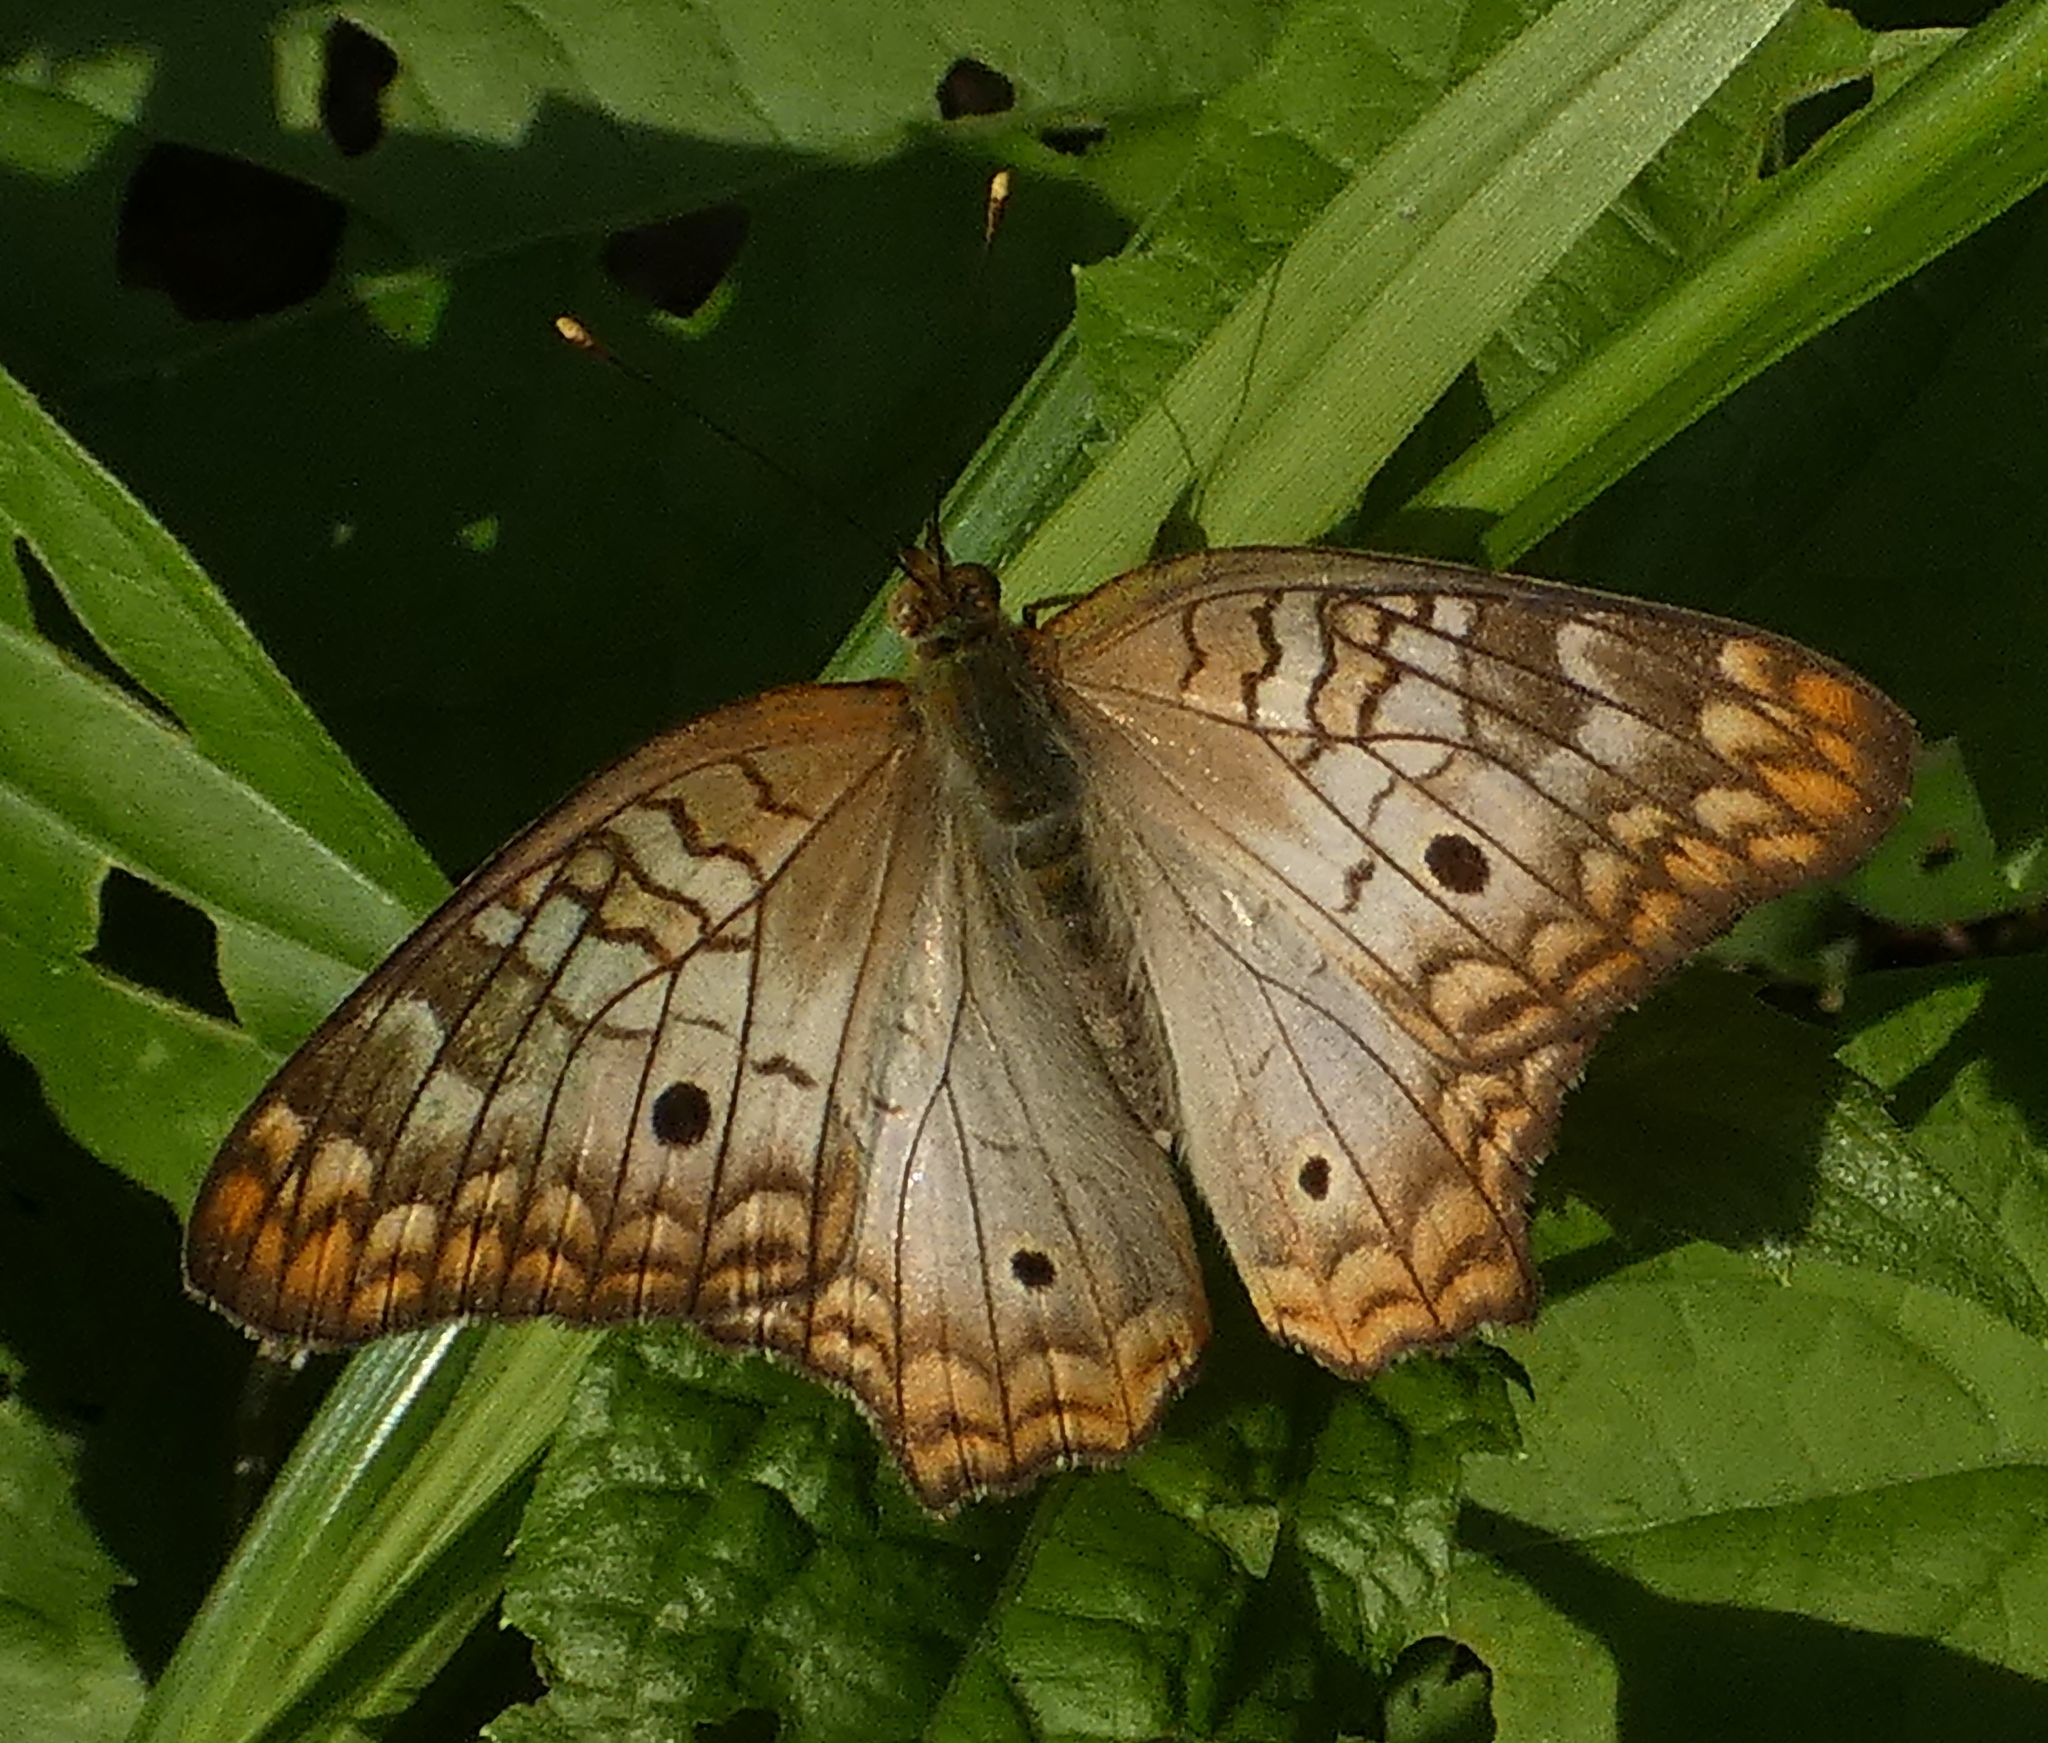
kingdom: Animalia
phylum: Arthropoda
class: Insecta
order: Lepidoptera
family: Nymphalidae
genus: Anartia
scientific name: Anartia jatrophae
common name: White peacock
